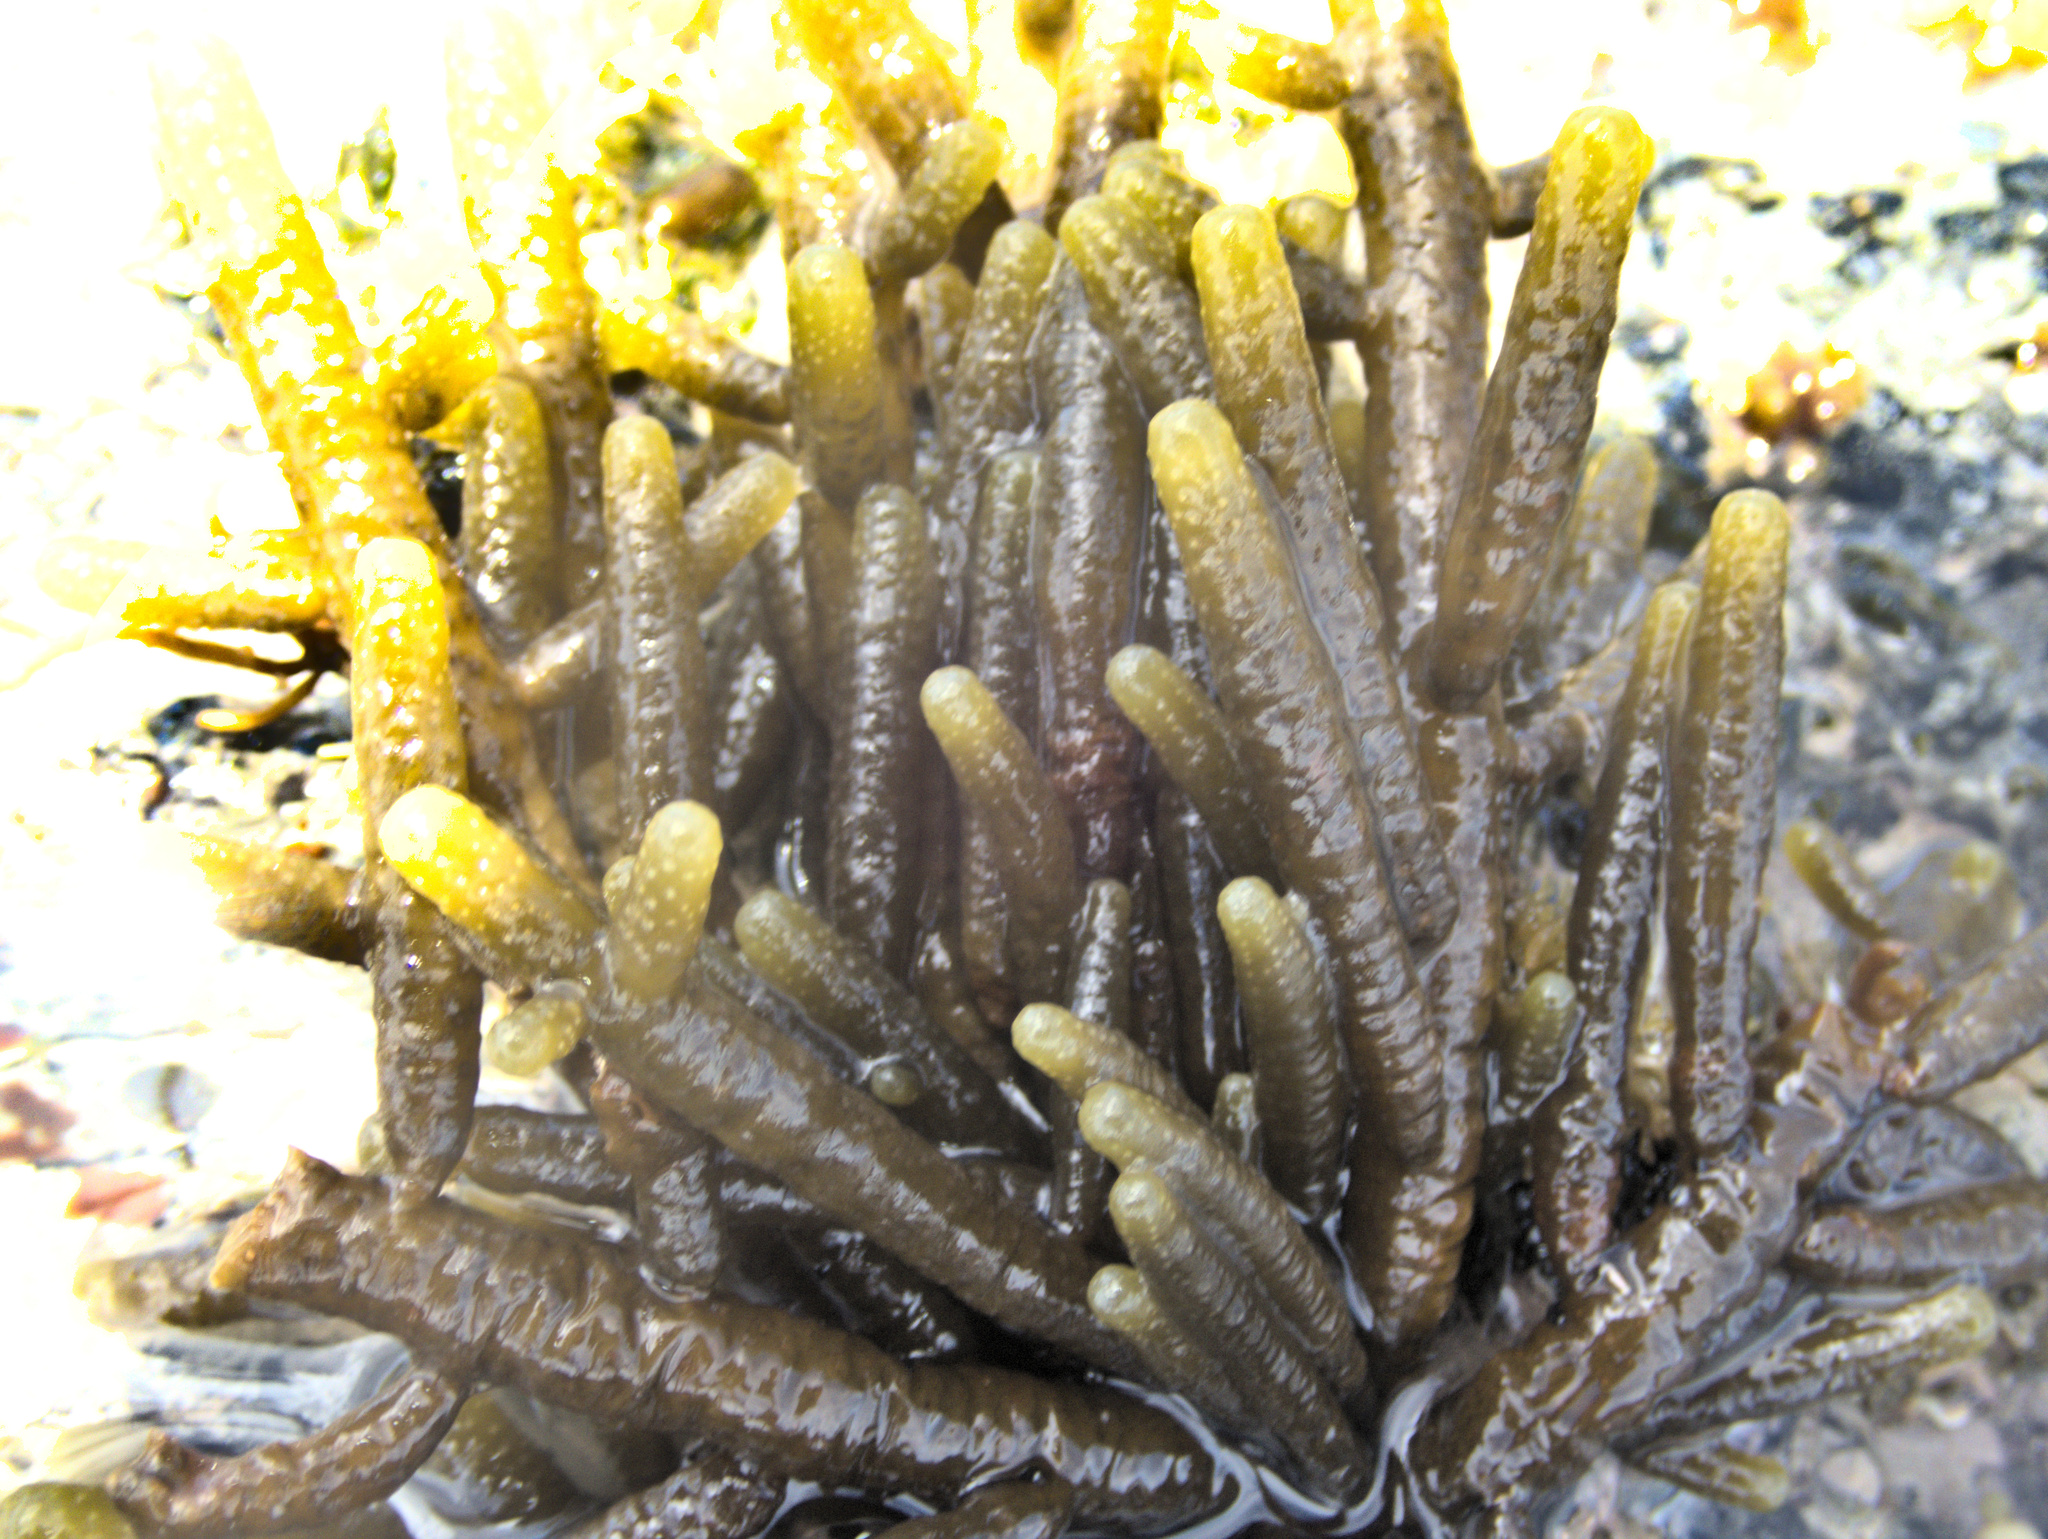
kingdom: Chromista
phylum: Ochrophyta
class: Phaeophyceae
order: Scytothamnales
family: Splachnidiaceae
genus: Splachnidium
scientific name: Splachnidium rugosum
